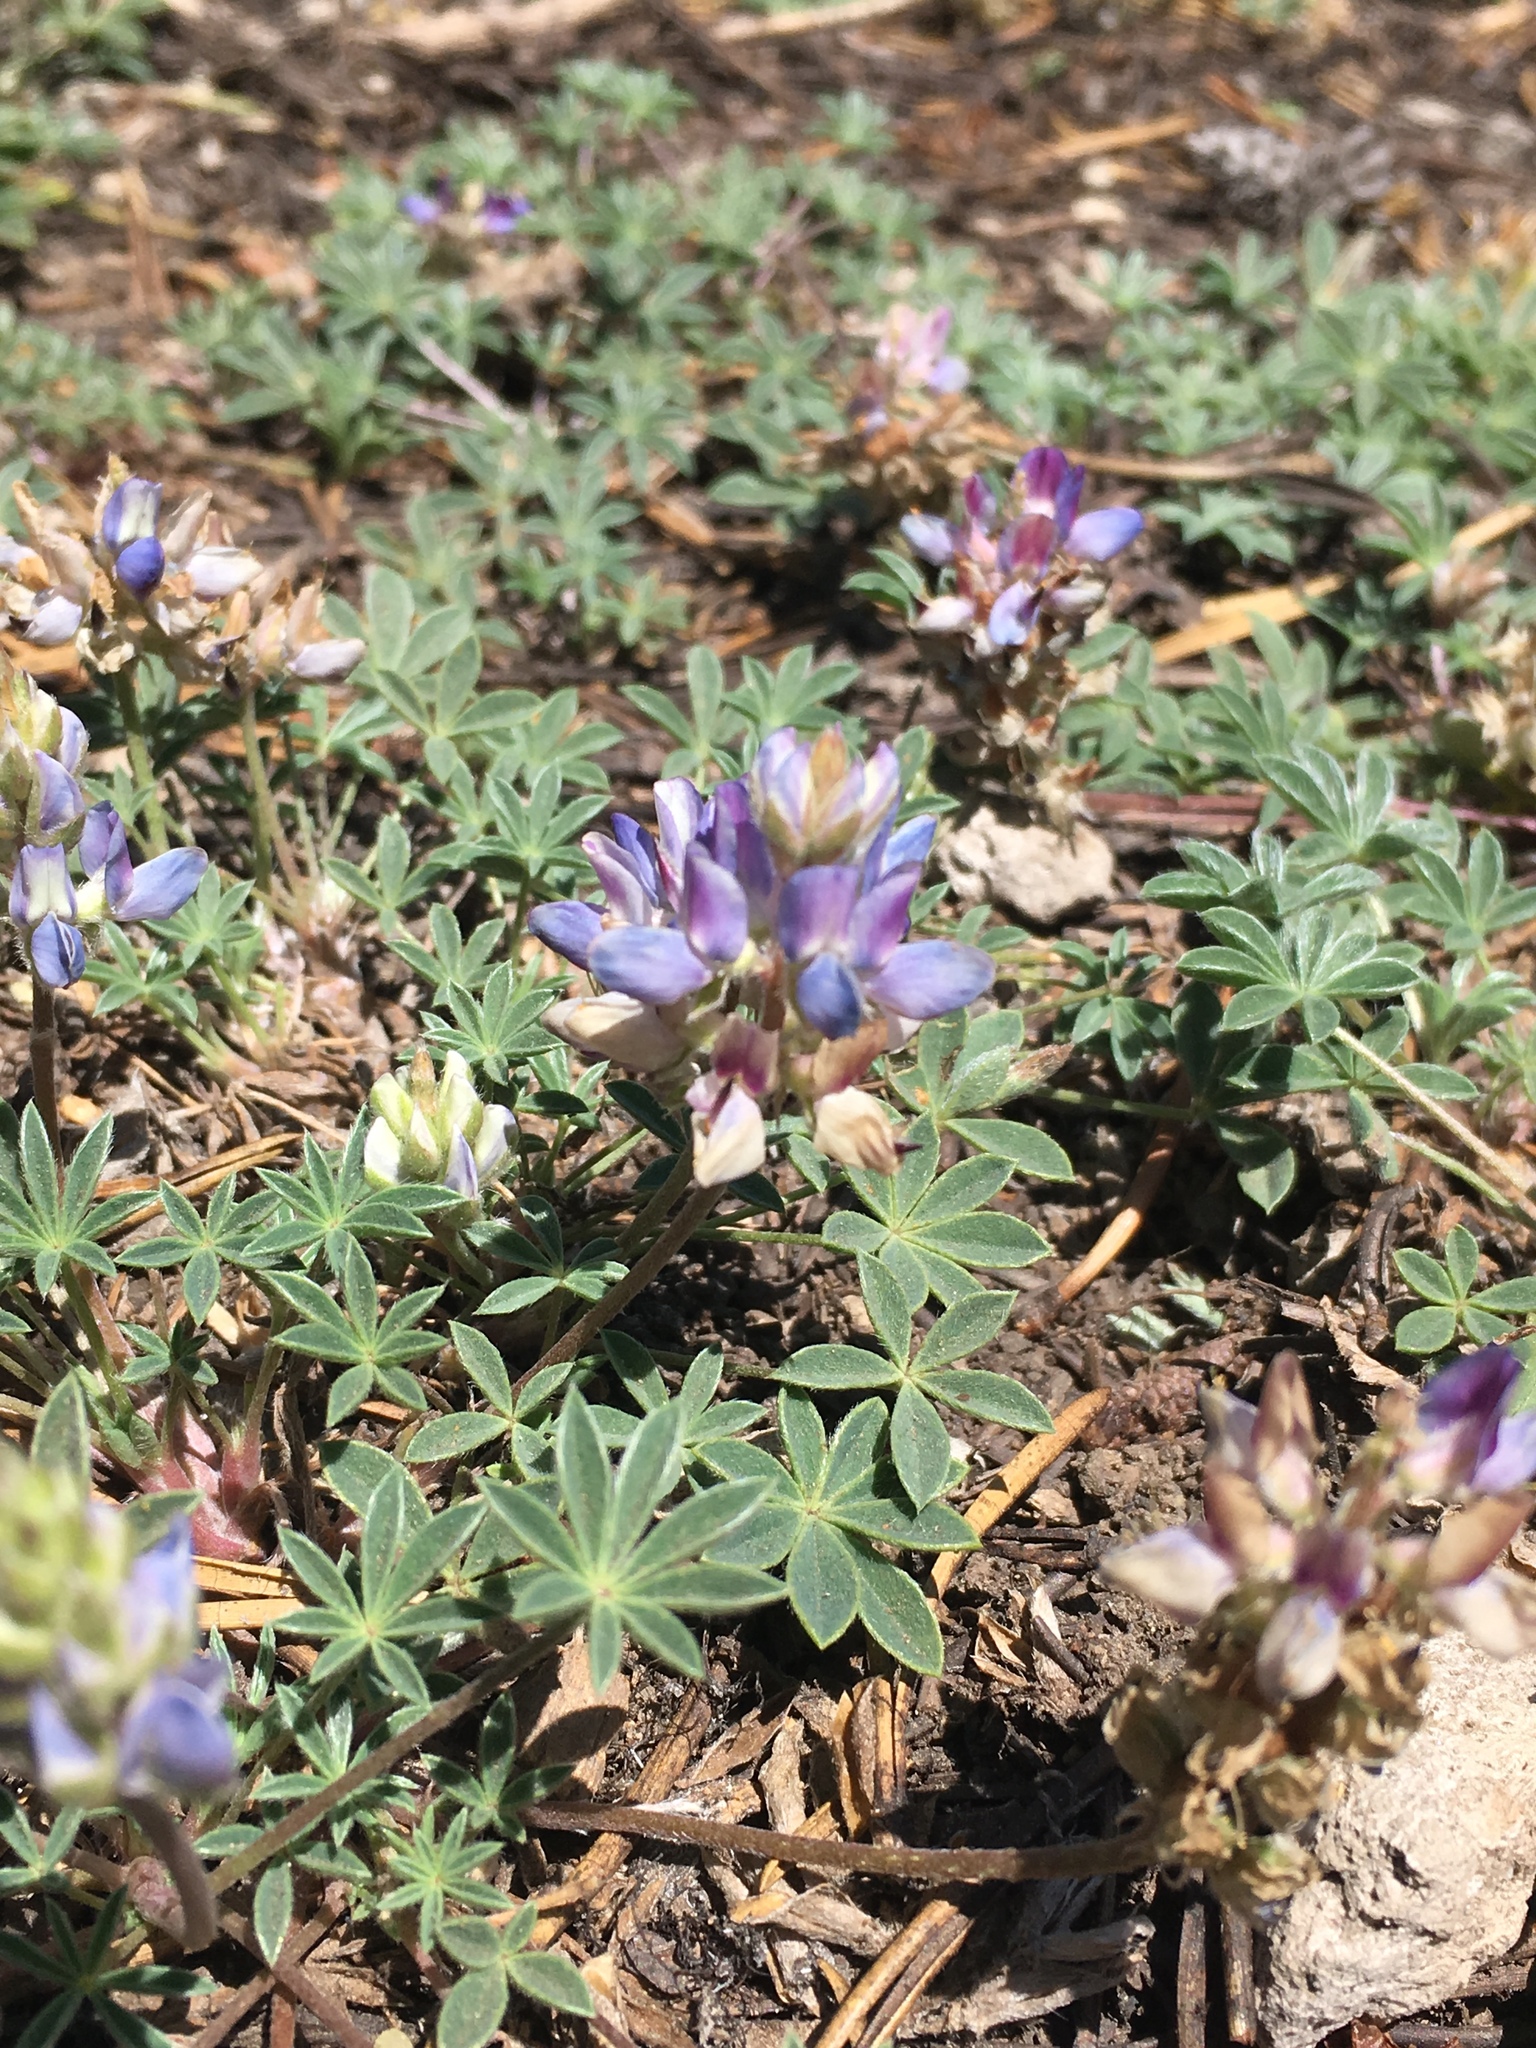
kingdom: Plantae
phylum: Tracheophyta
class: Magnoliopsida
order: Fabales
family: Fabaceae
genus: Lupinus
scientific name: Lupinus lepidus
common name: Prairie lupine
